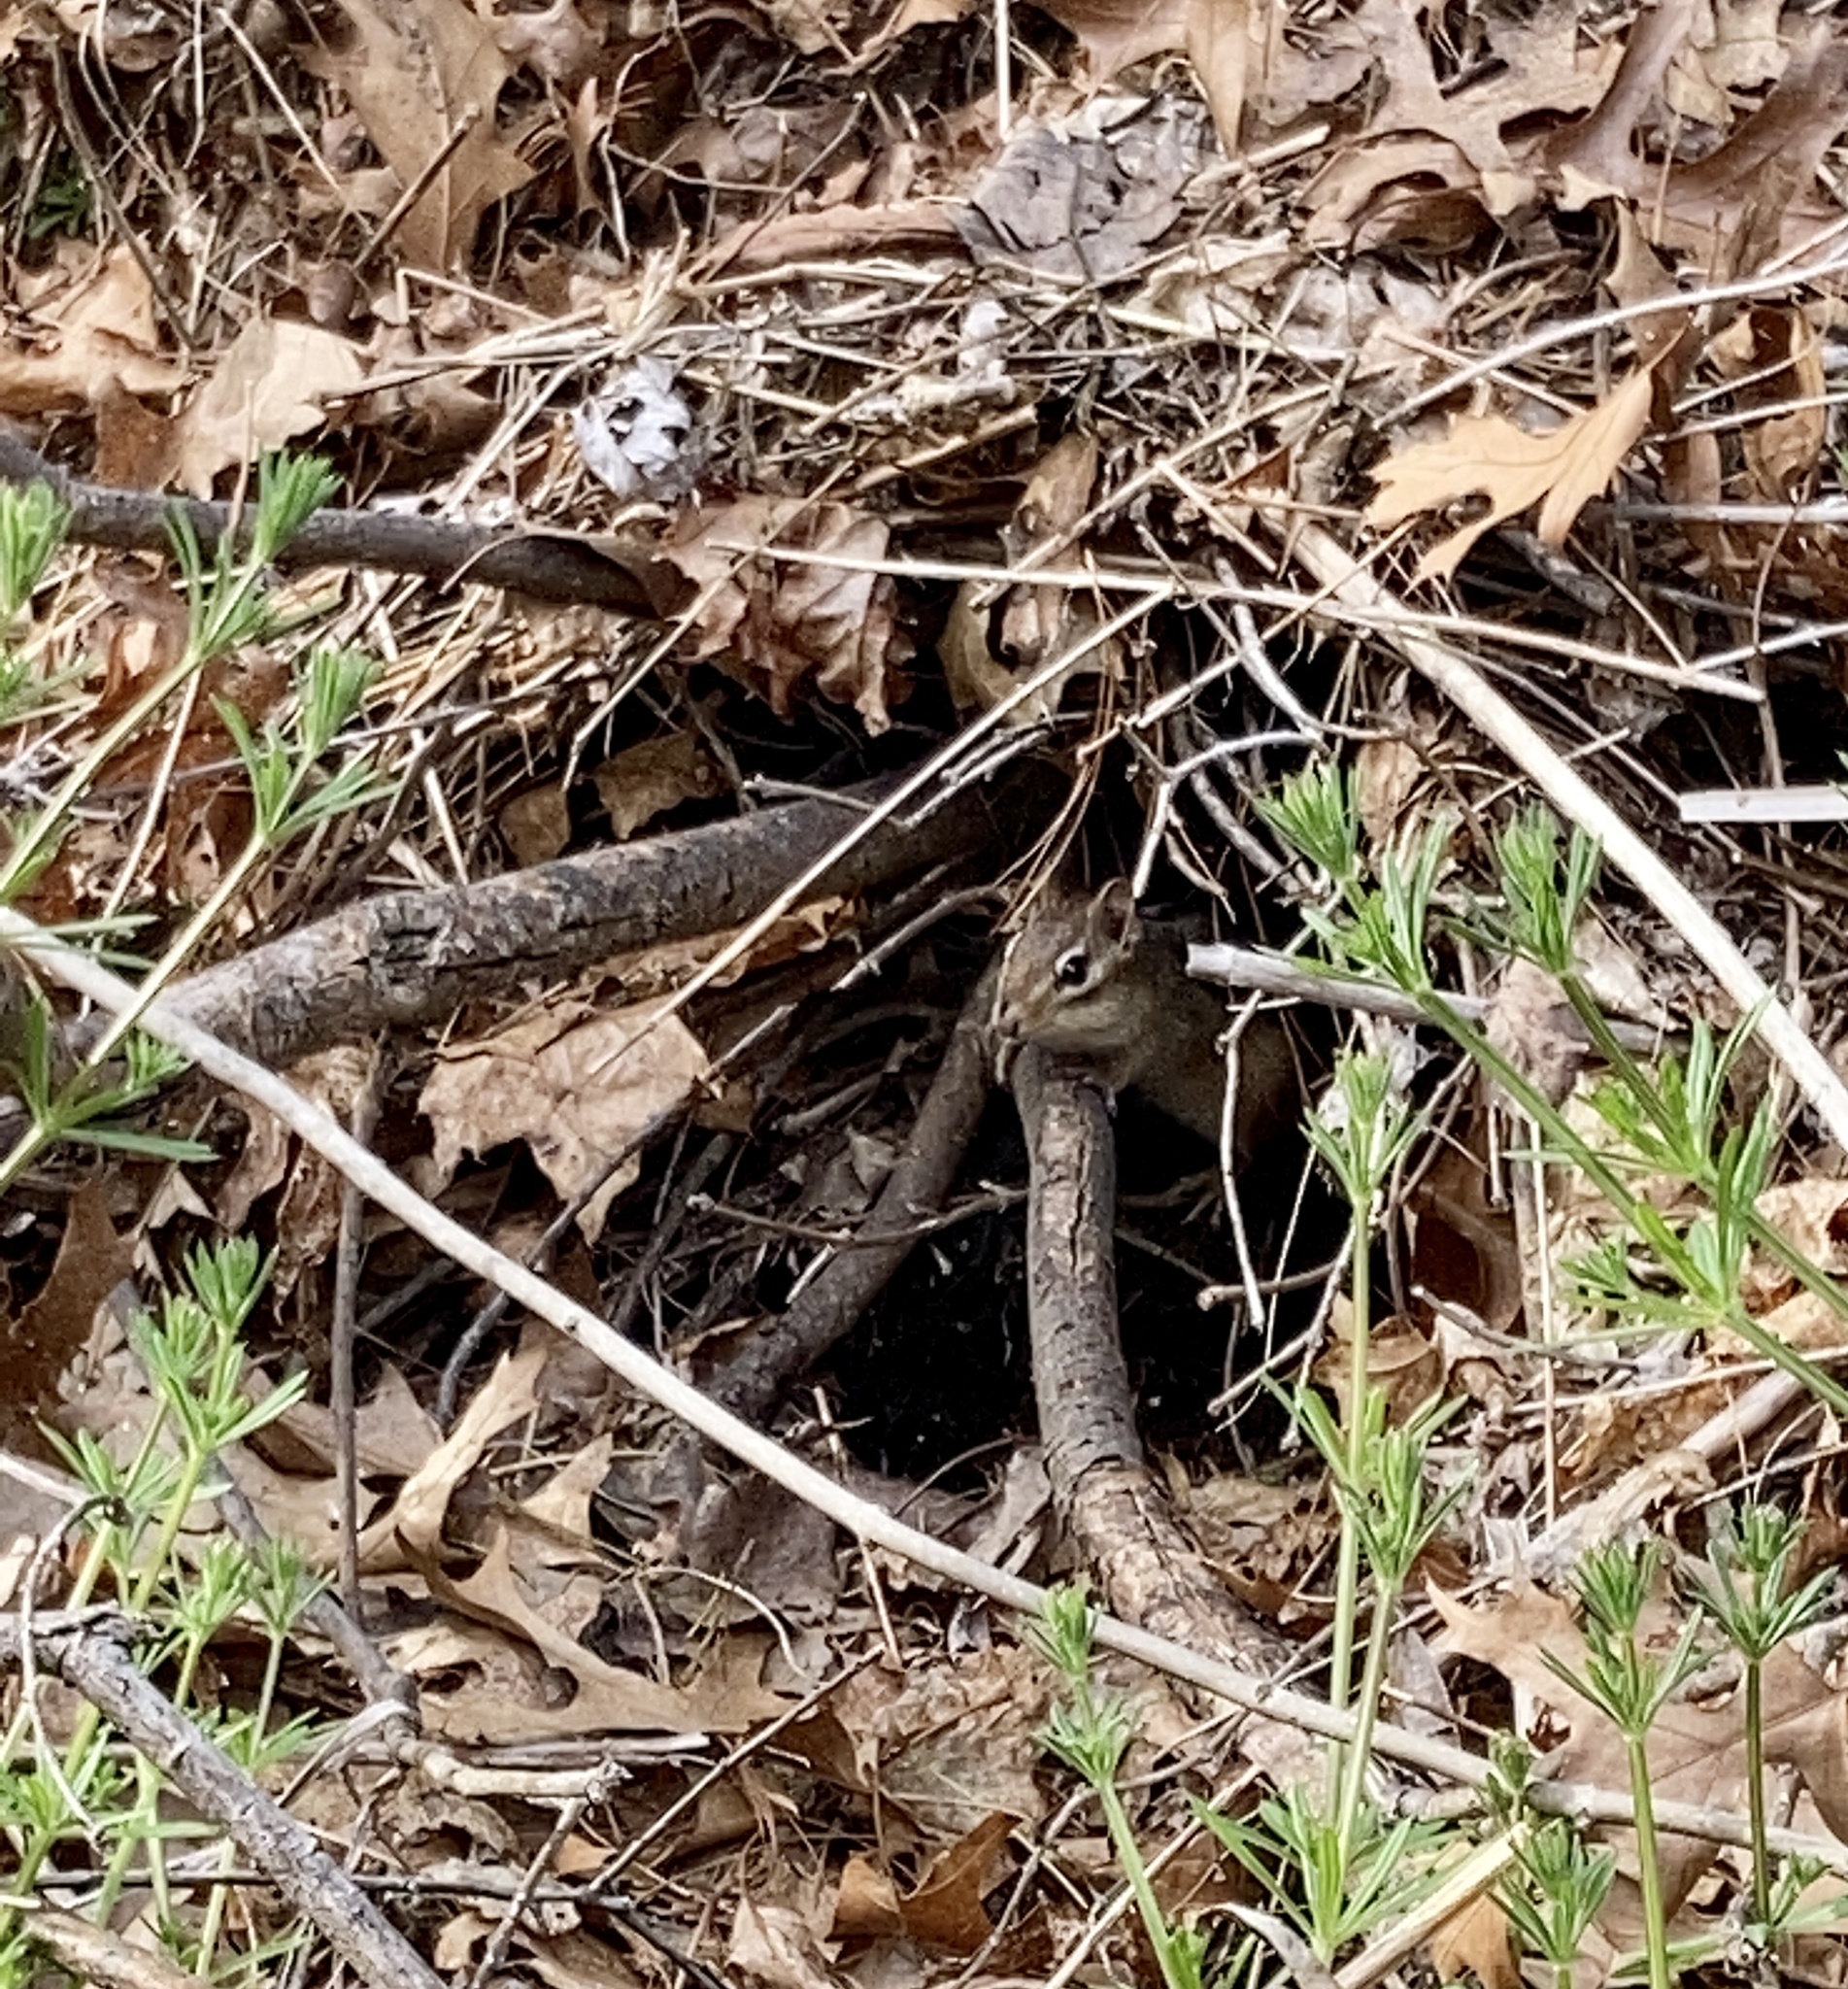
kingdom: Animalia
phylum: Chordata
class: Mammalia
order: Rodentia
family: Sciuridae
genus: Tamias
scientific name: Tamias striatus
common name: Eastern chipmunk
